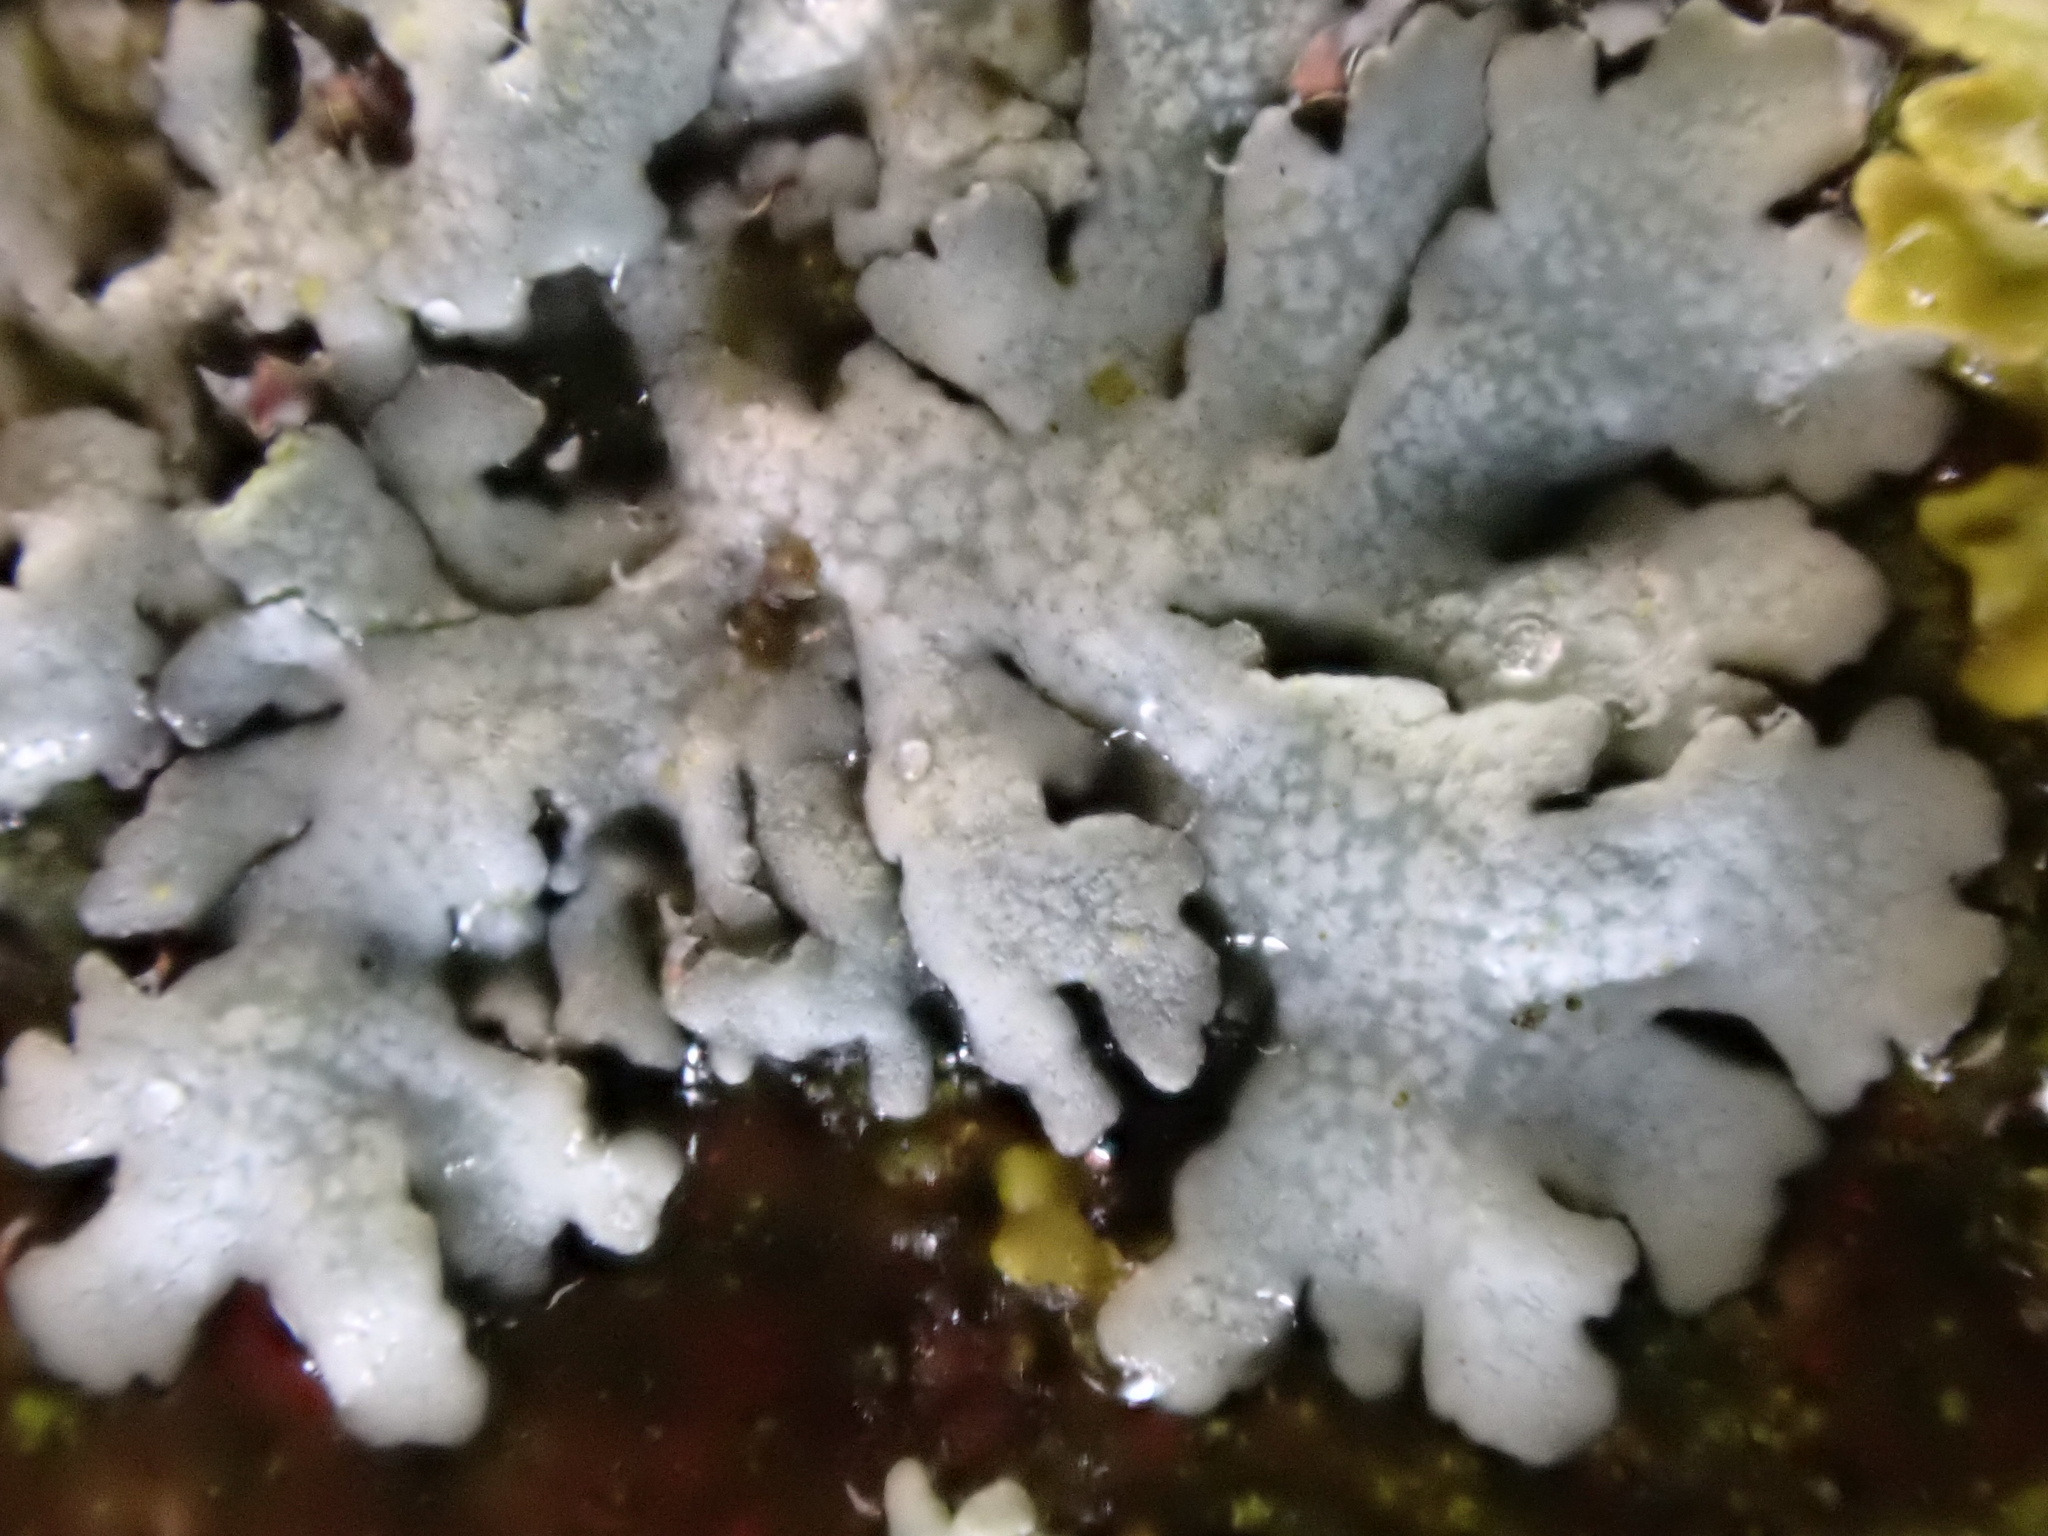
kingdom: Fungi
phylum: Ascomycota
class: Lecanoromycetes
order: Caliciales
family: Physciaceae
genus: Physcia
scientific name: Physcia caesia
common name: Blue-gray rosette lichen
